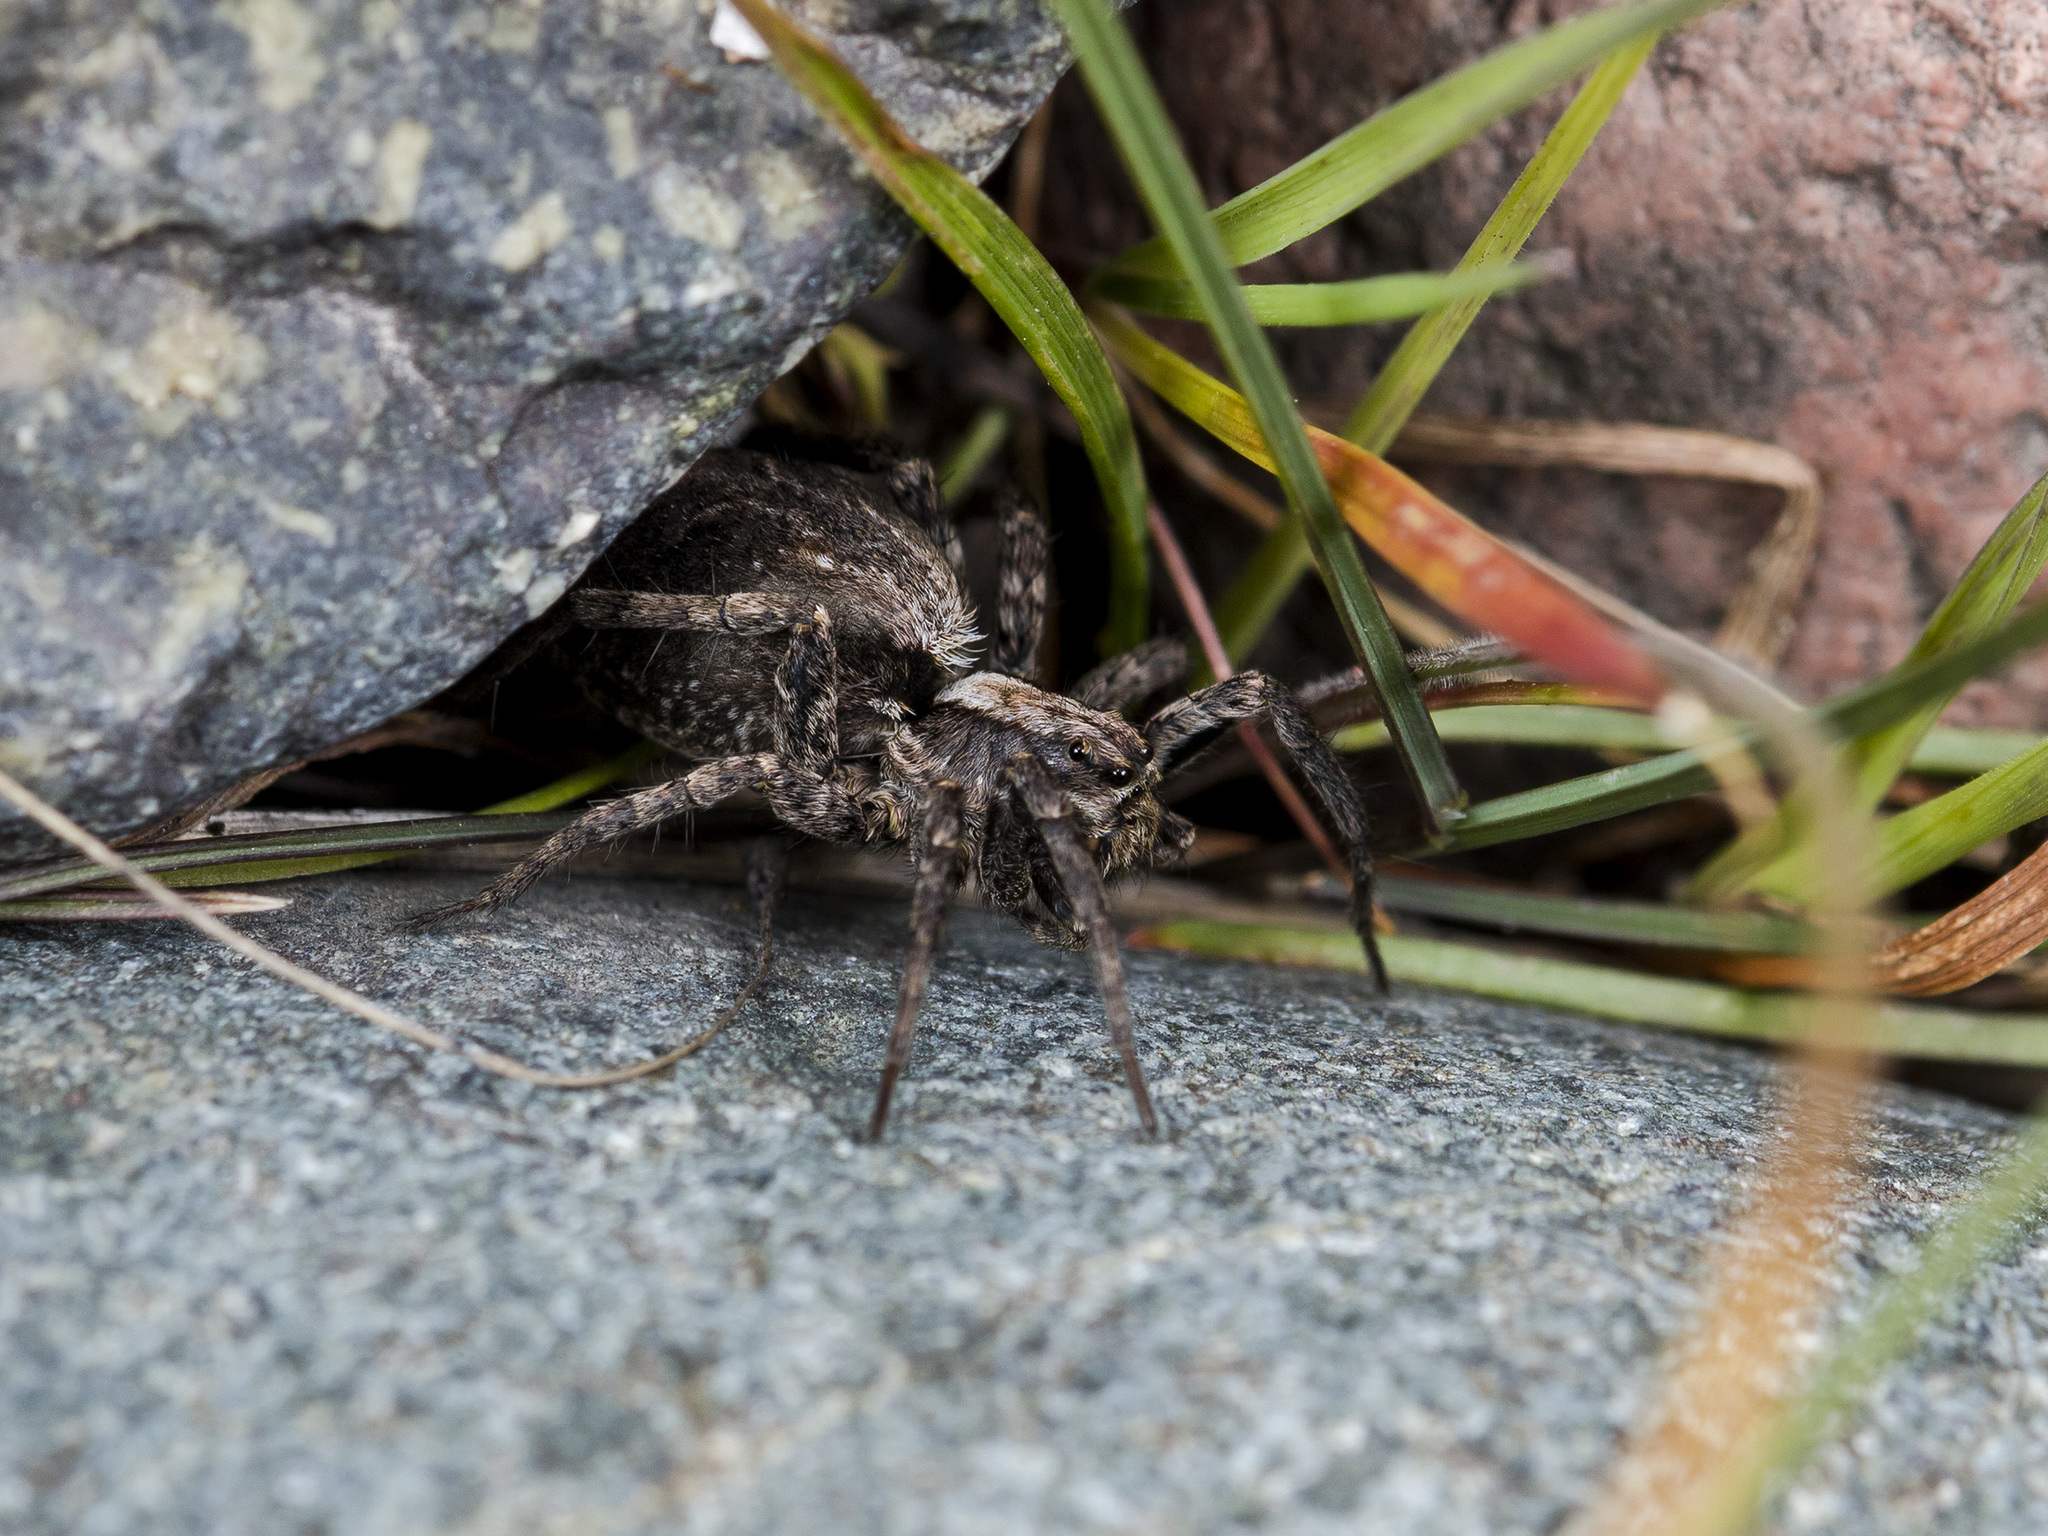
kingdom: Animalia
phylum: Arthropoda
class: Arachnida
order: Araneae
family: Lycosidae
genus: Alopecosa
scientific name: Alopecosa cursor
